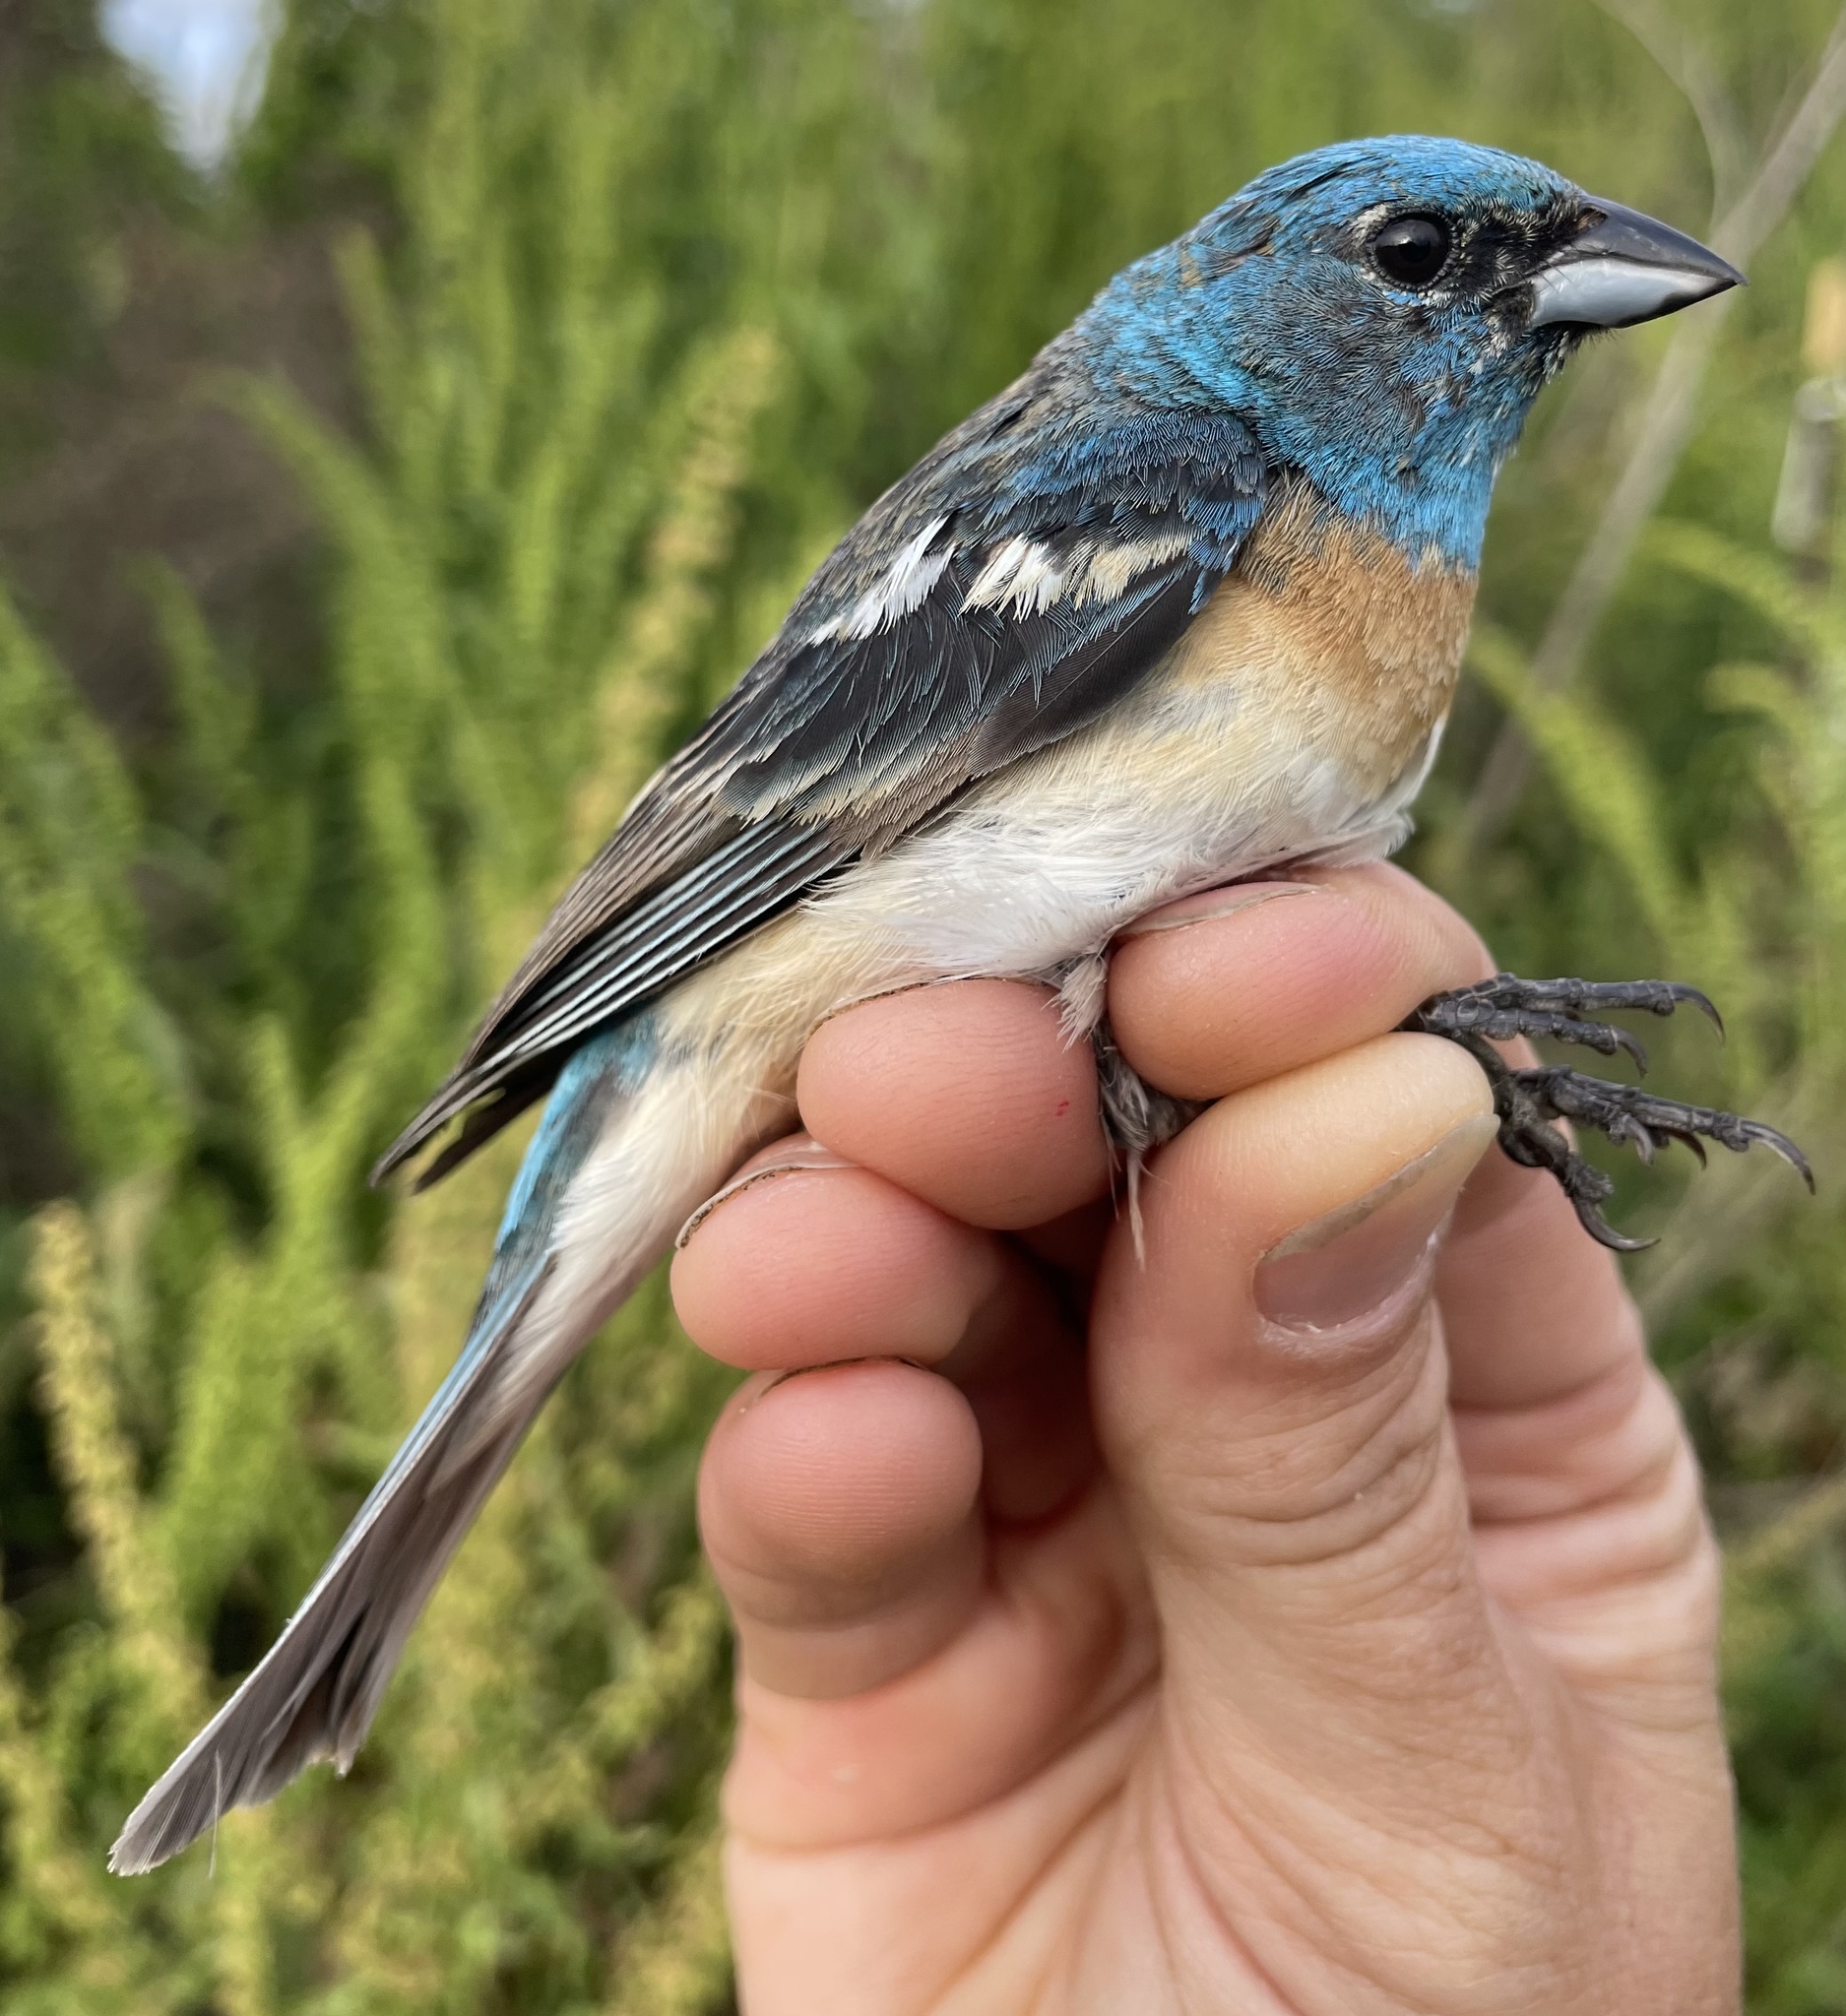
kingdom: Animalia
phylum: Chordata
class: Aves
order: Passeriformes
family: Cardinalidae
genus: Passerina
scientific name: Passerina amoena
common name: Lazuli bunting
